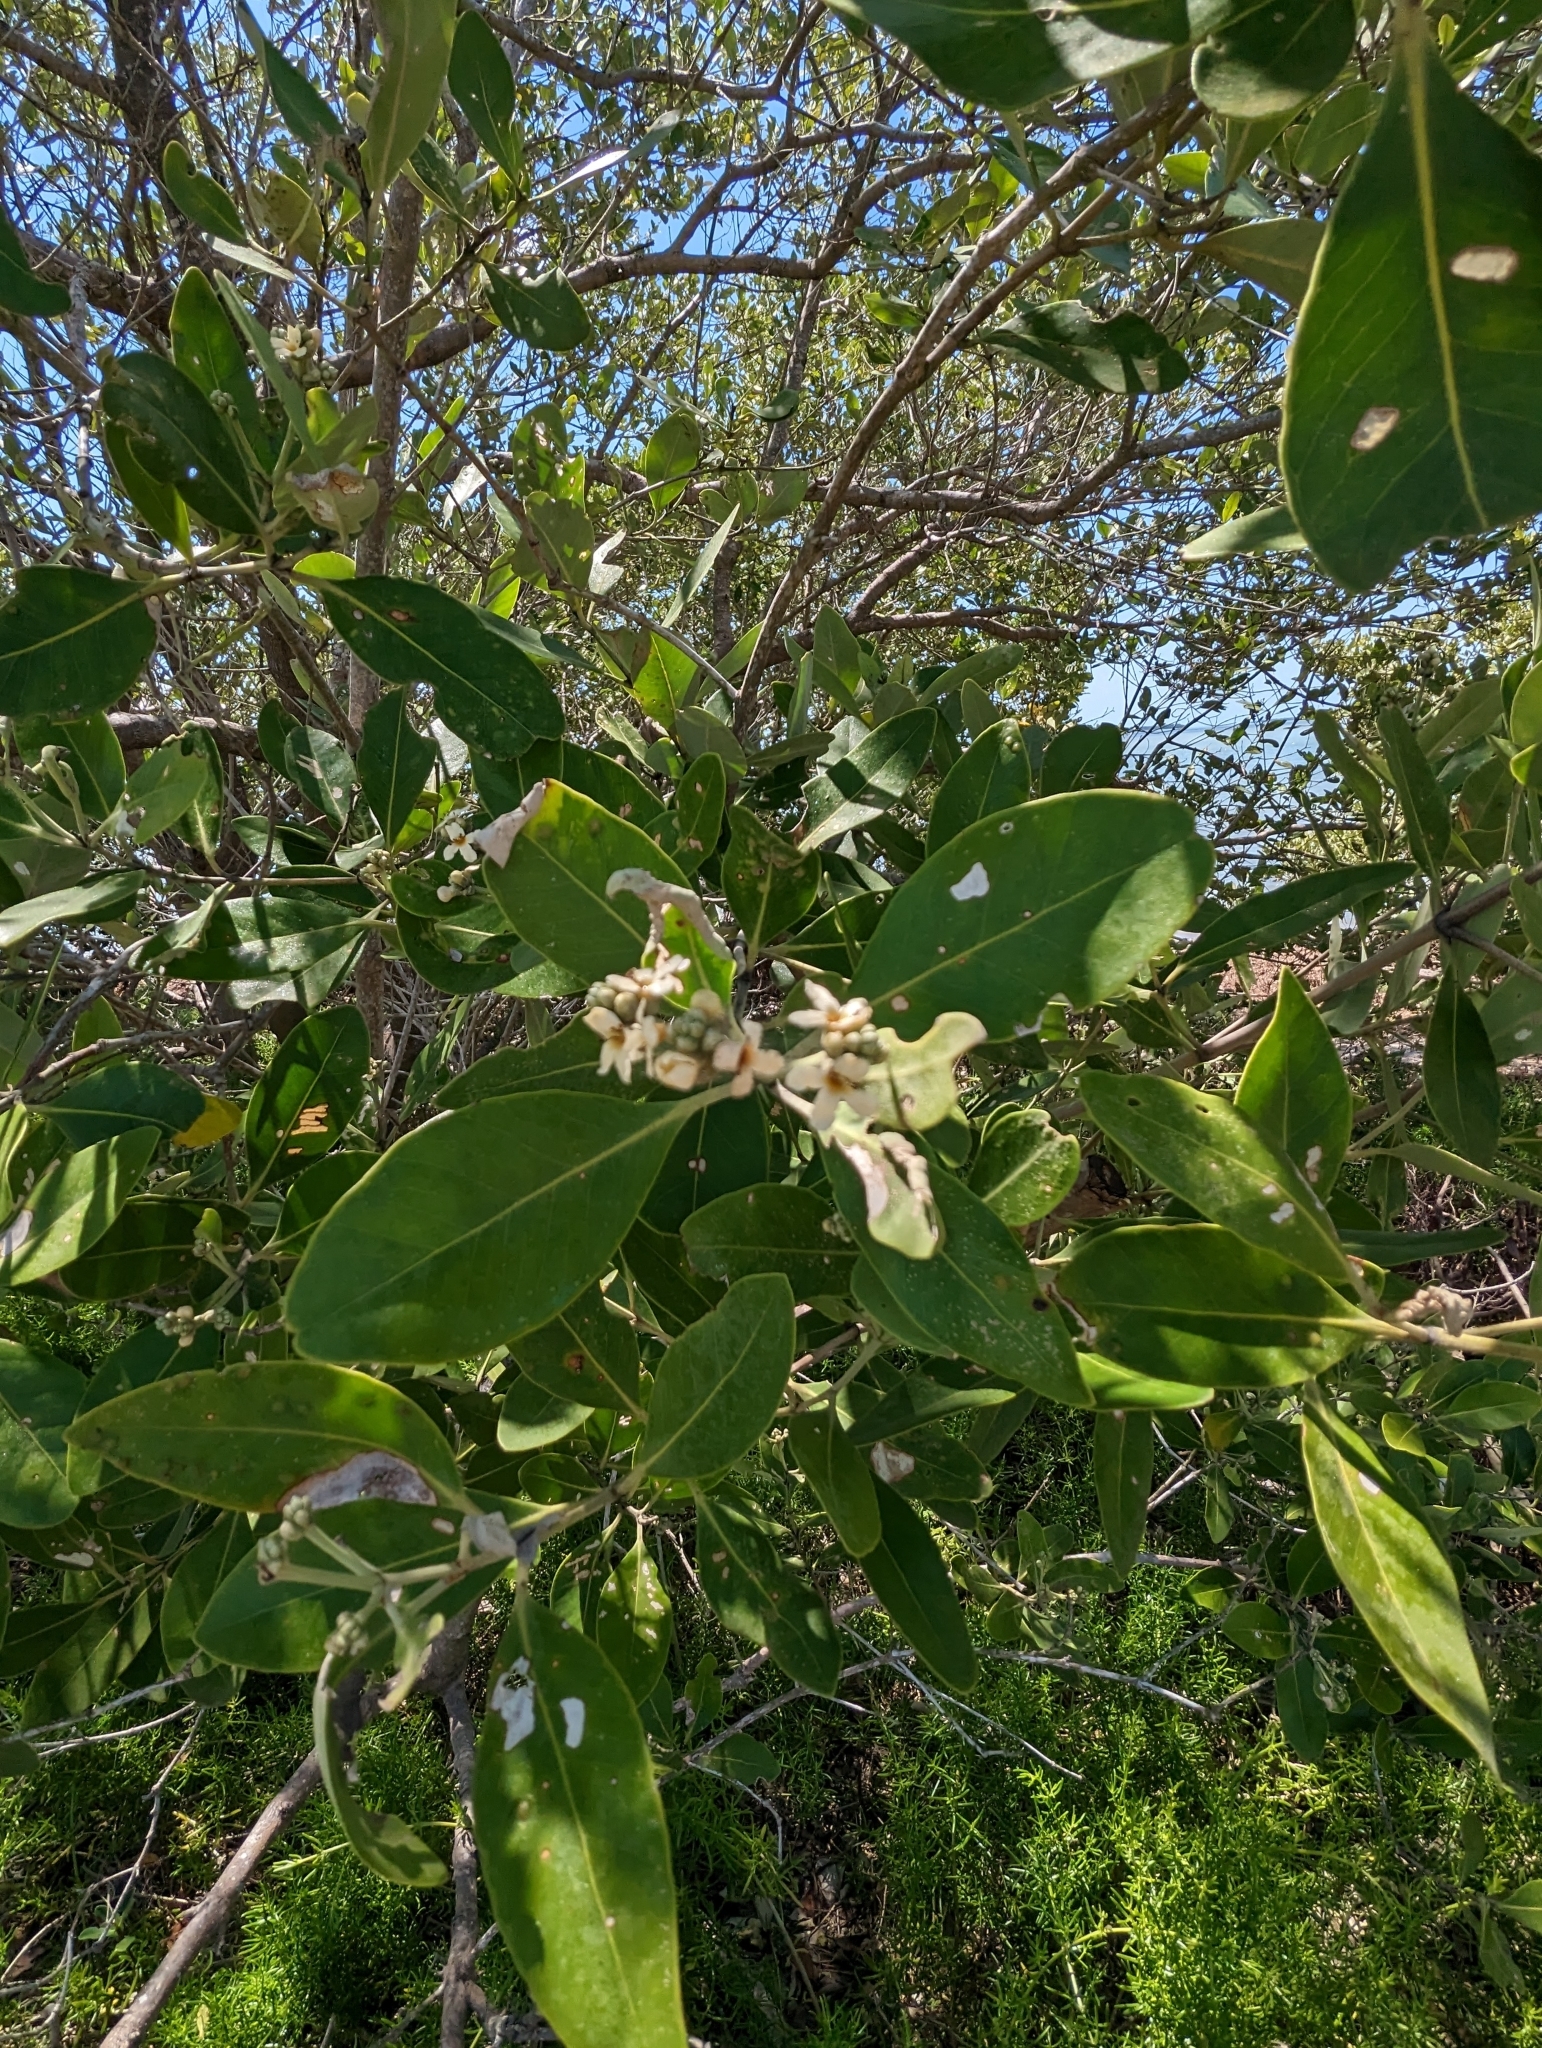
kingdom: Plantae
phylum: Tracheophyta
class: Magnoliopsida
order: Lamiales
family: Acanthaceae
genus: Avicennia
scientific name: Avicennia germinans
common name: Black mangrove
